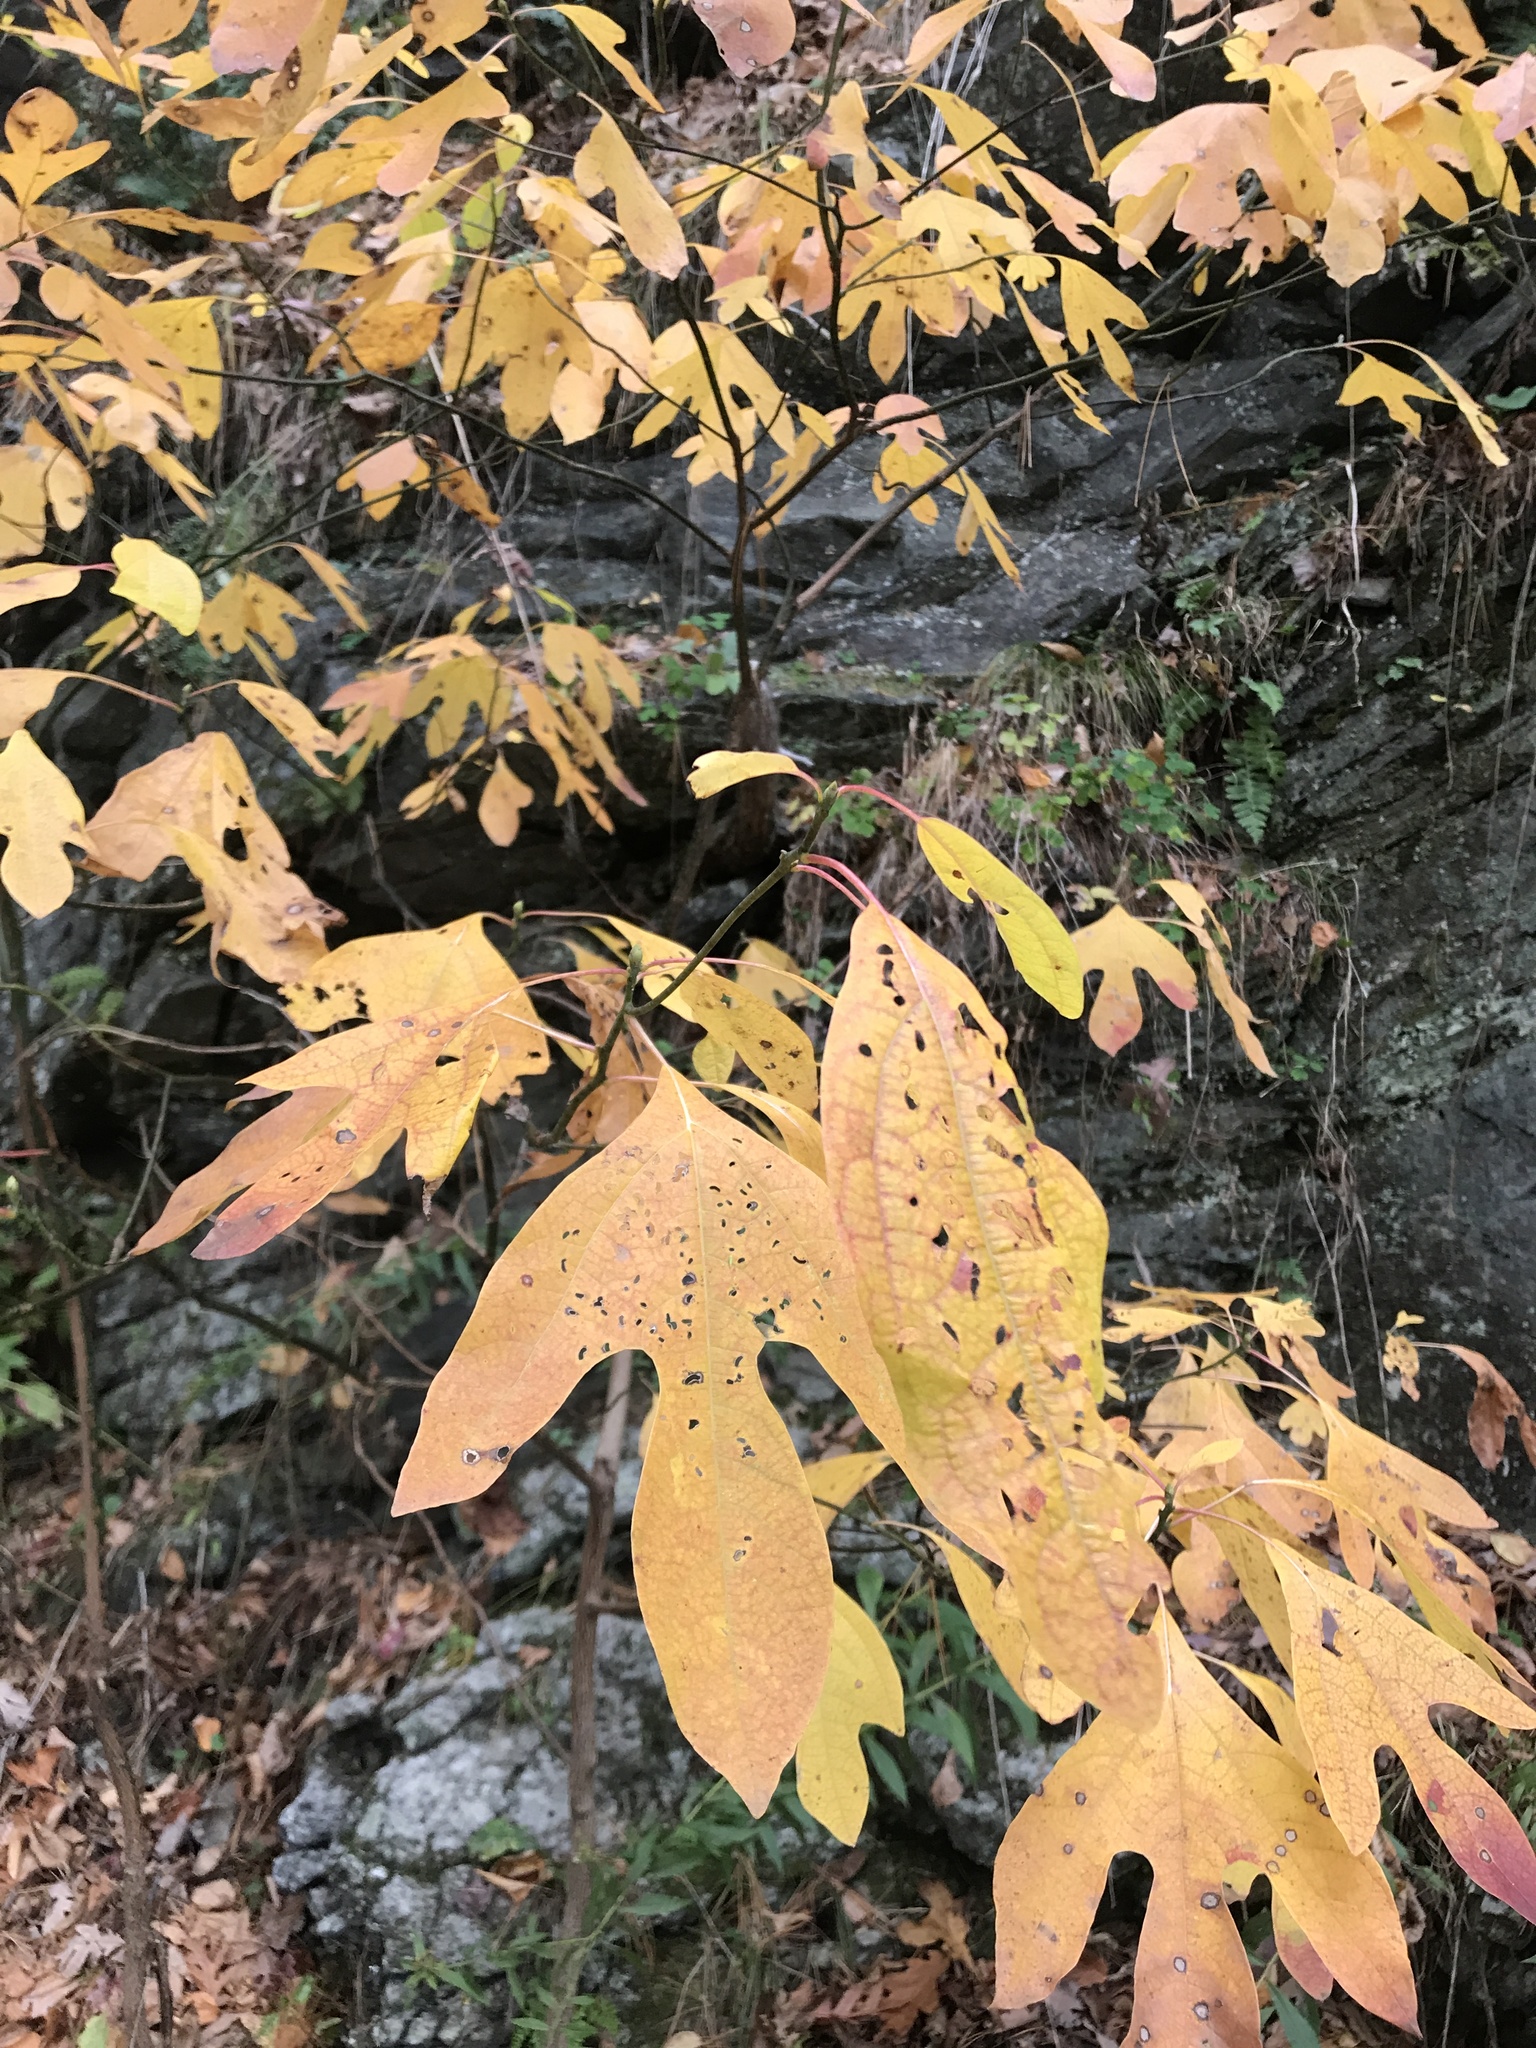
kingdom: Plantae
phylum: Tracheophyta
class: Magnoliopsida
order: Laurales
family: Lauraceae
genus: Sassafras
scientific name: Sassafras albidum
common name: Sassafras
